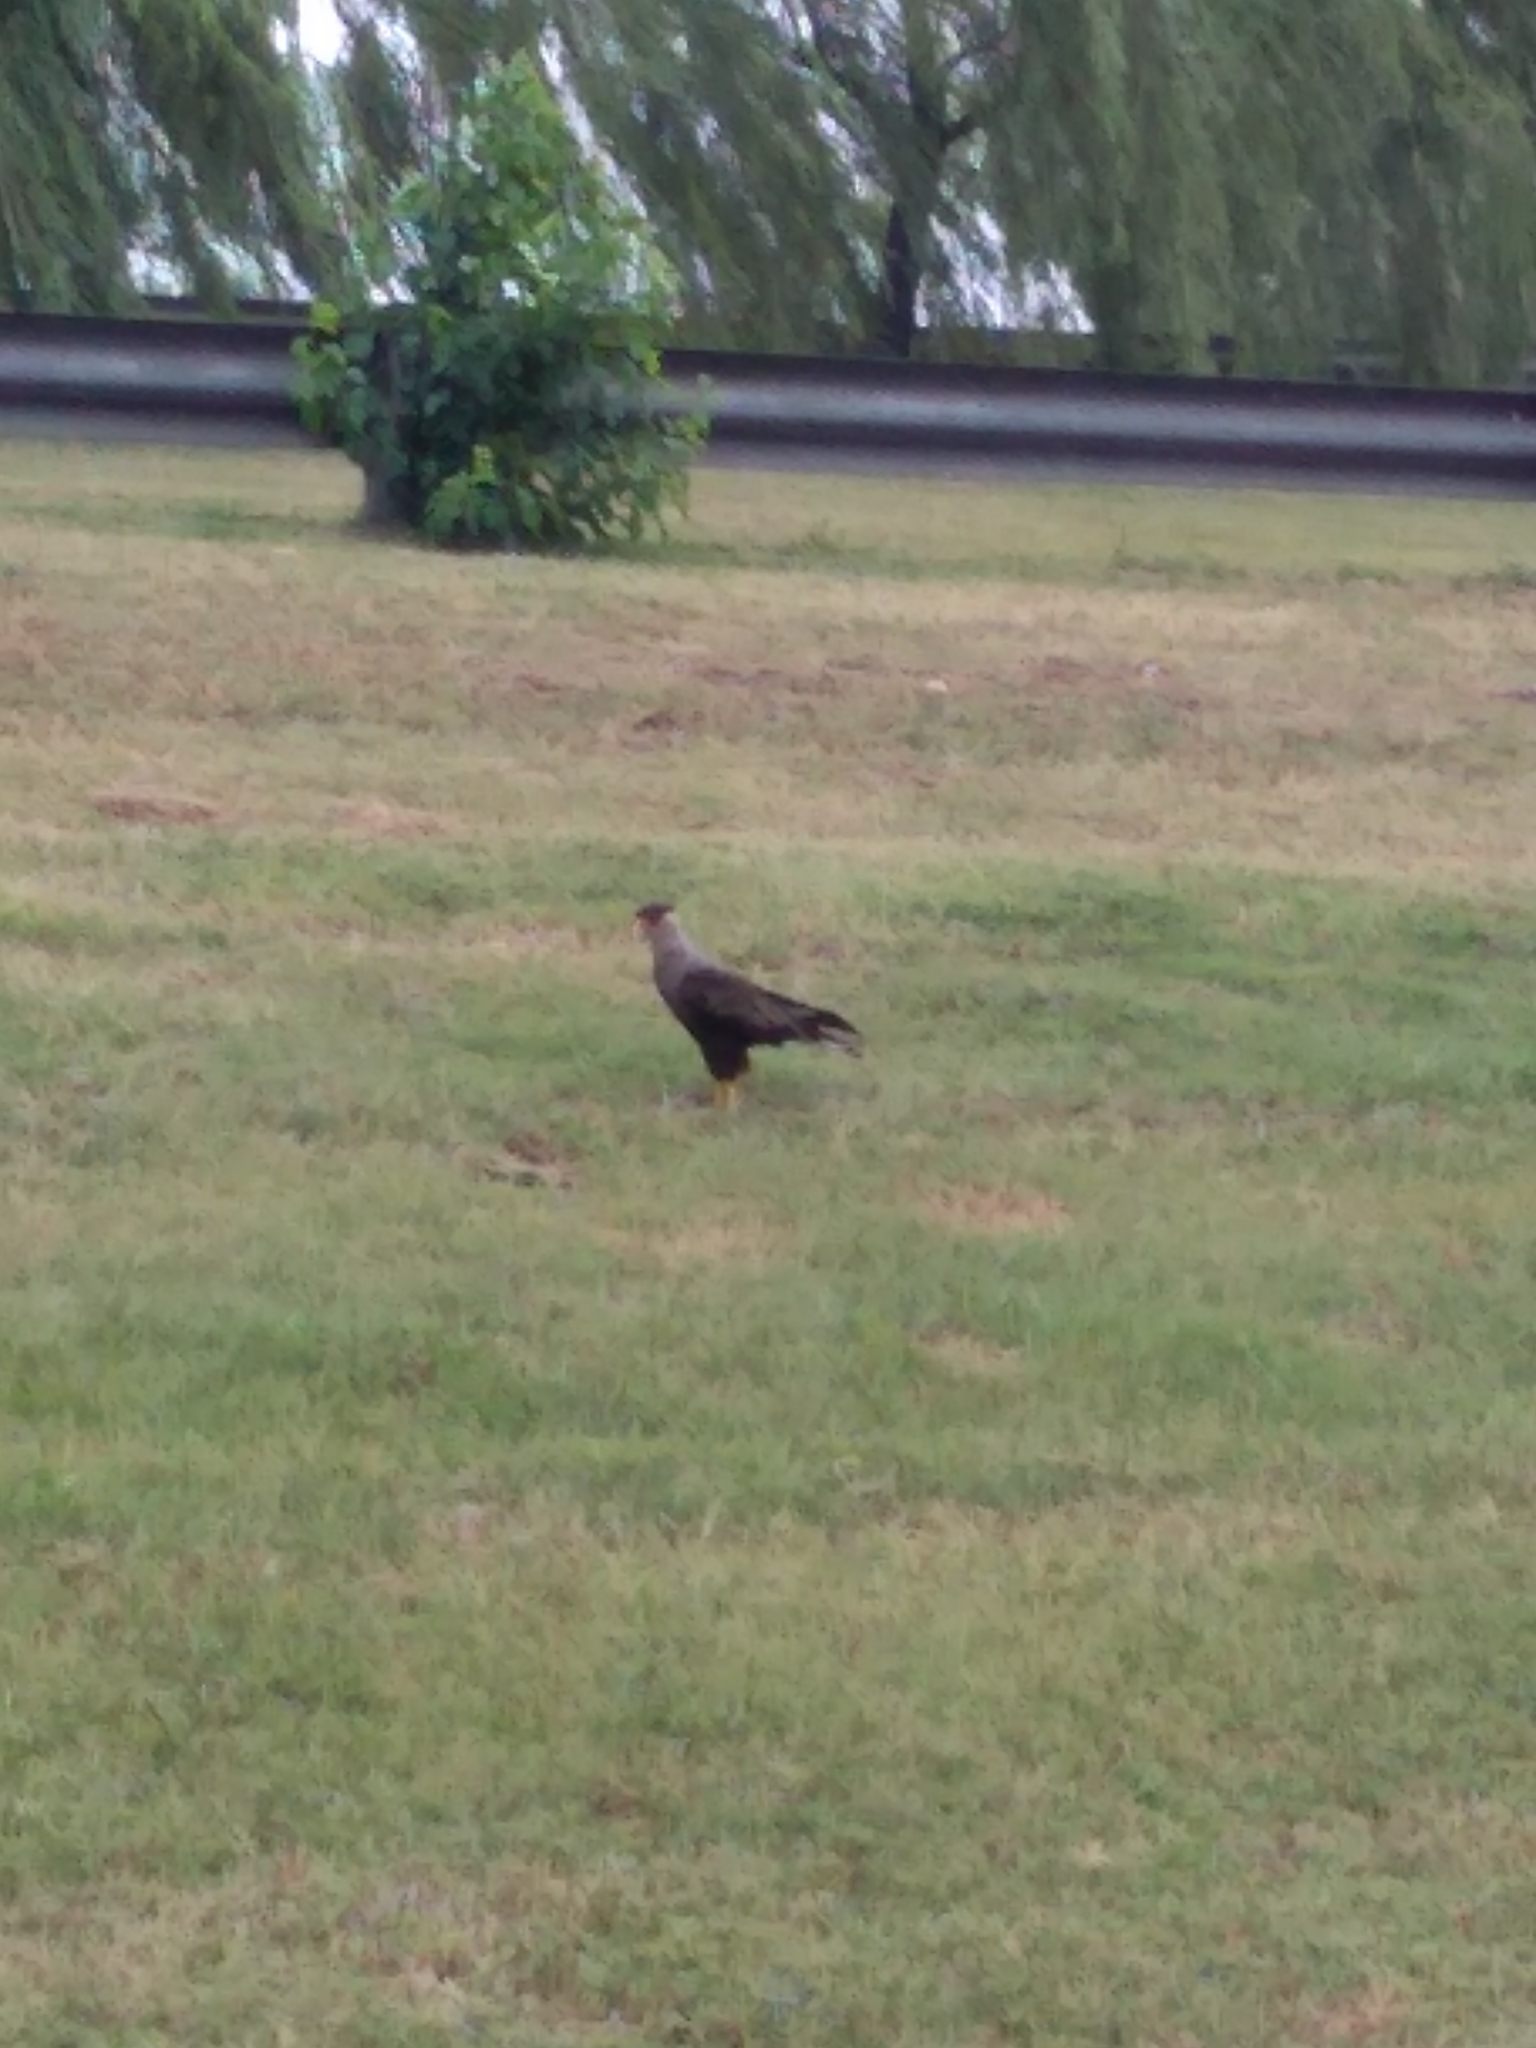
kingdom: Animalia
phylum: Chordata
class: Aves
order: Falconiformes
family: Falconidae
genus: Caracara
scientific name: Caracara plancus
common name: Southern caracara
